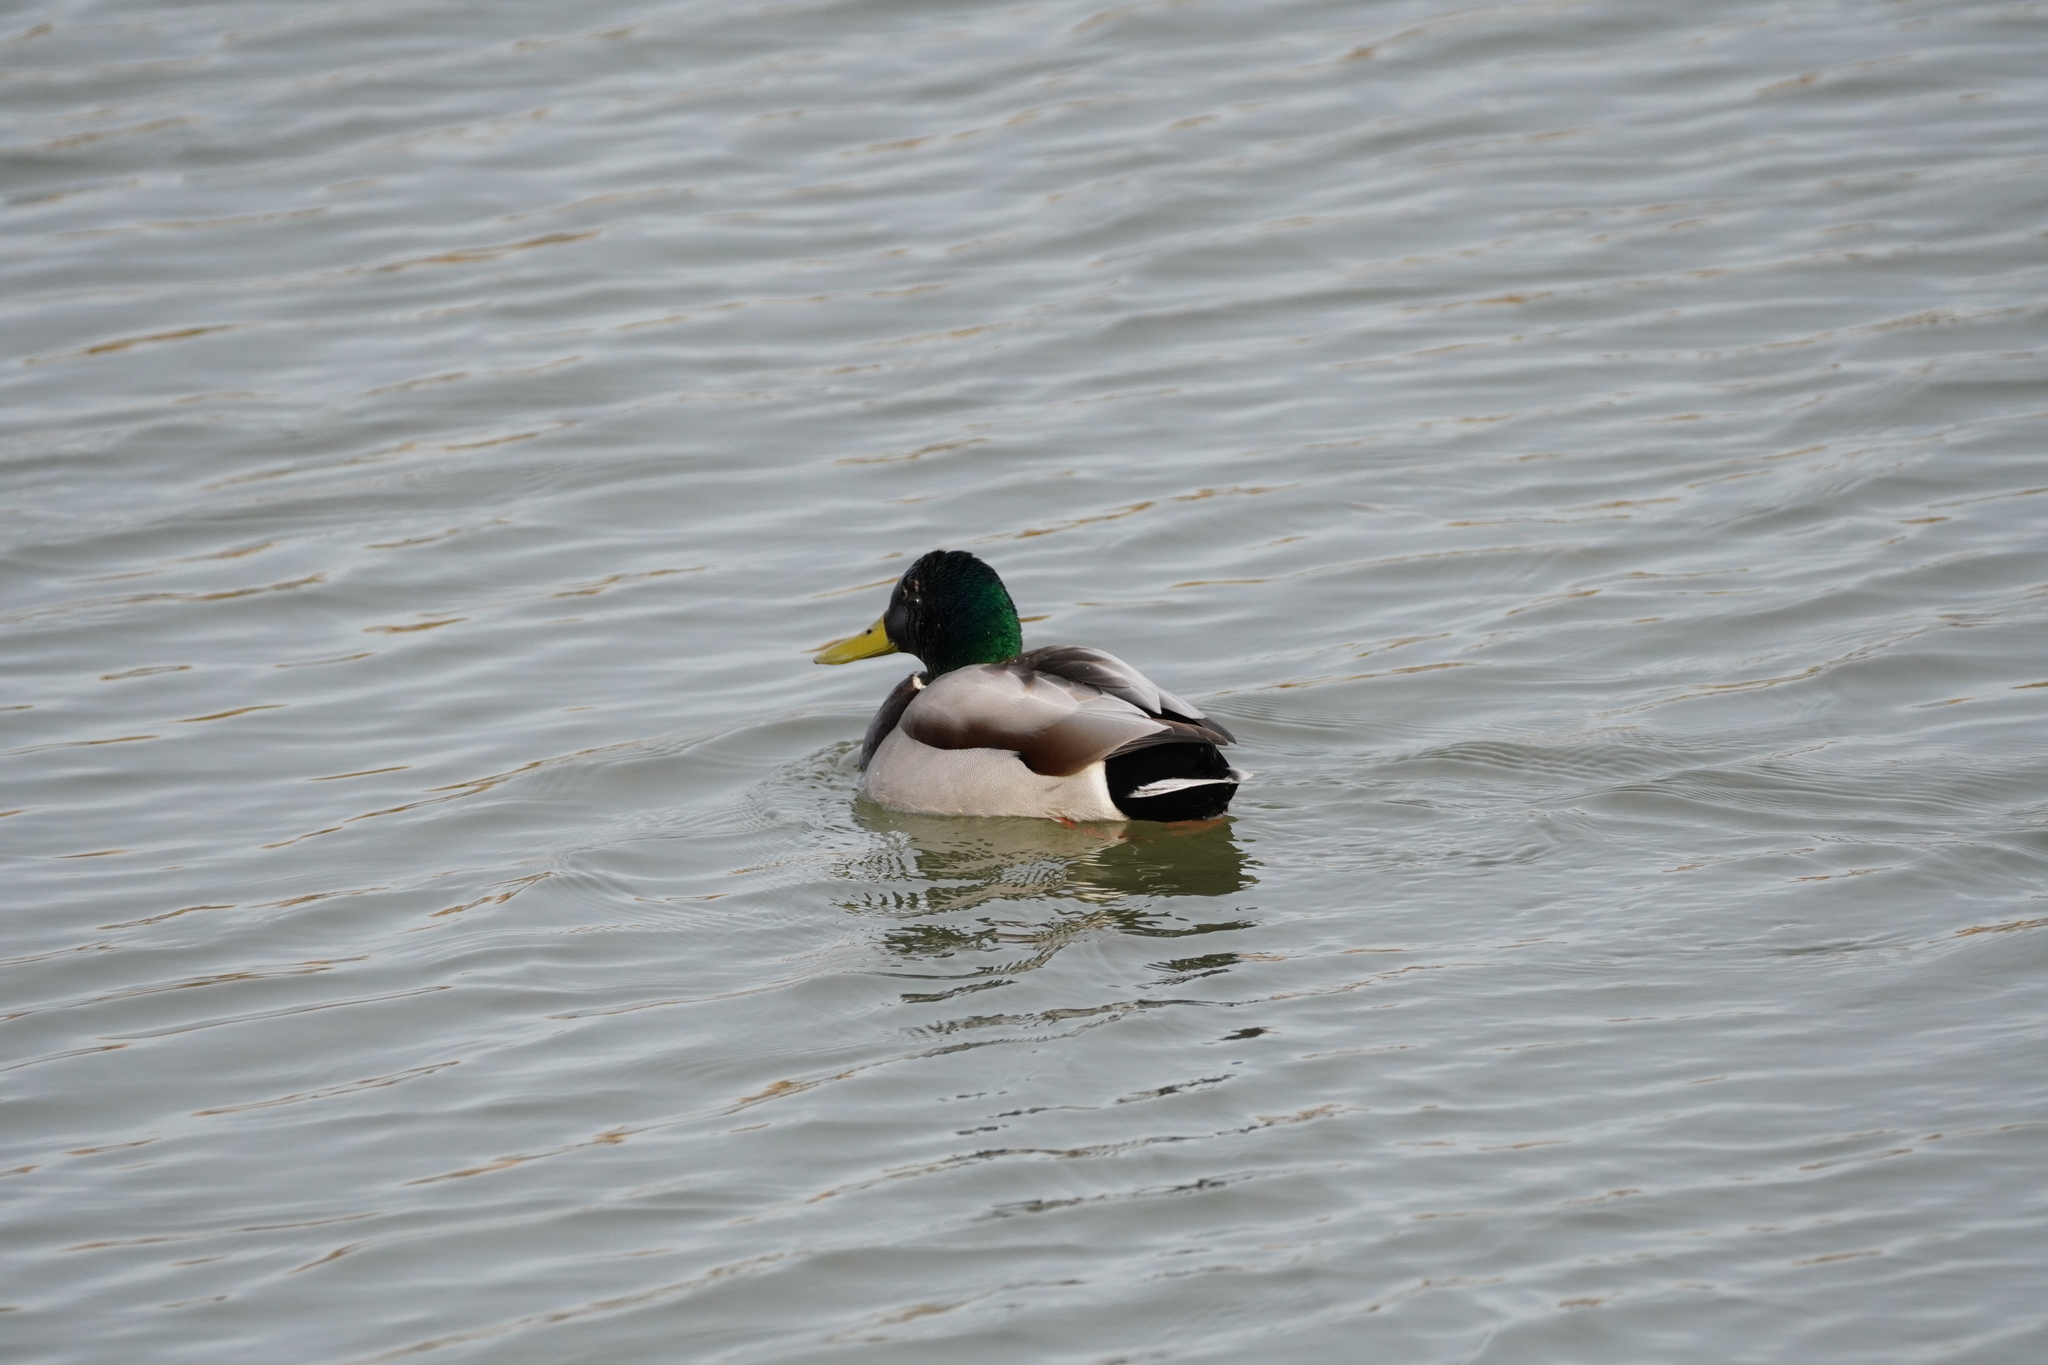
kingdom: Animalia
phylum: Chordata
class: Aves
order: Anseriformes
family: Anatidae
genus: Anas
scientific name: Anas platyrhynchos
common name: Mallard
